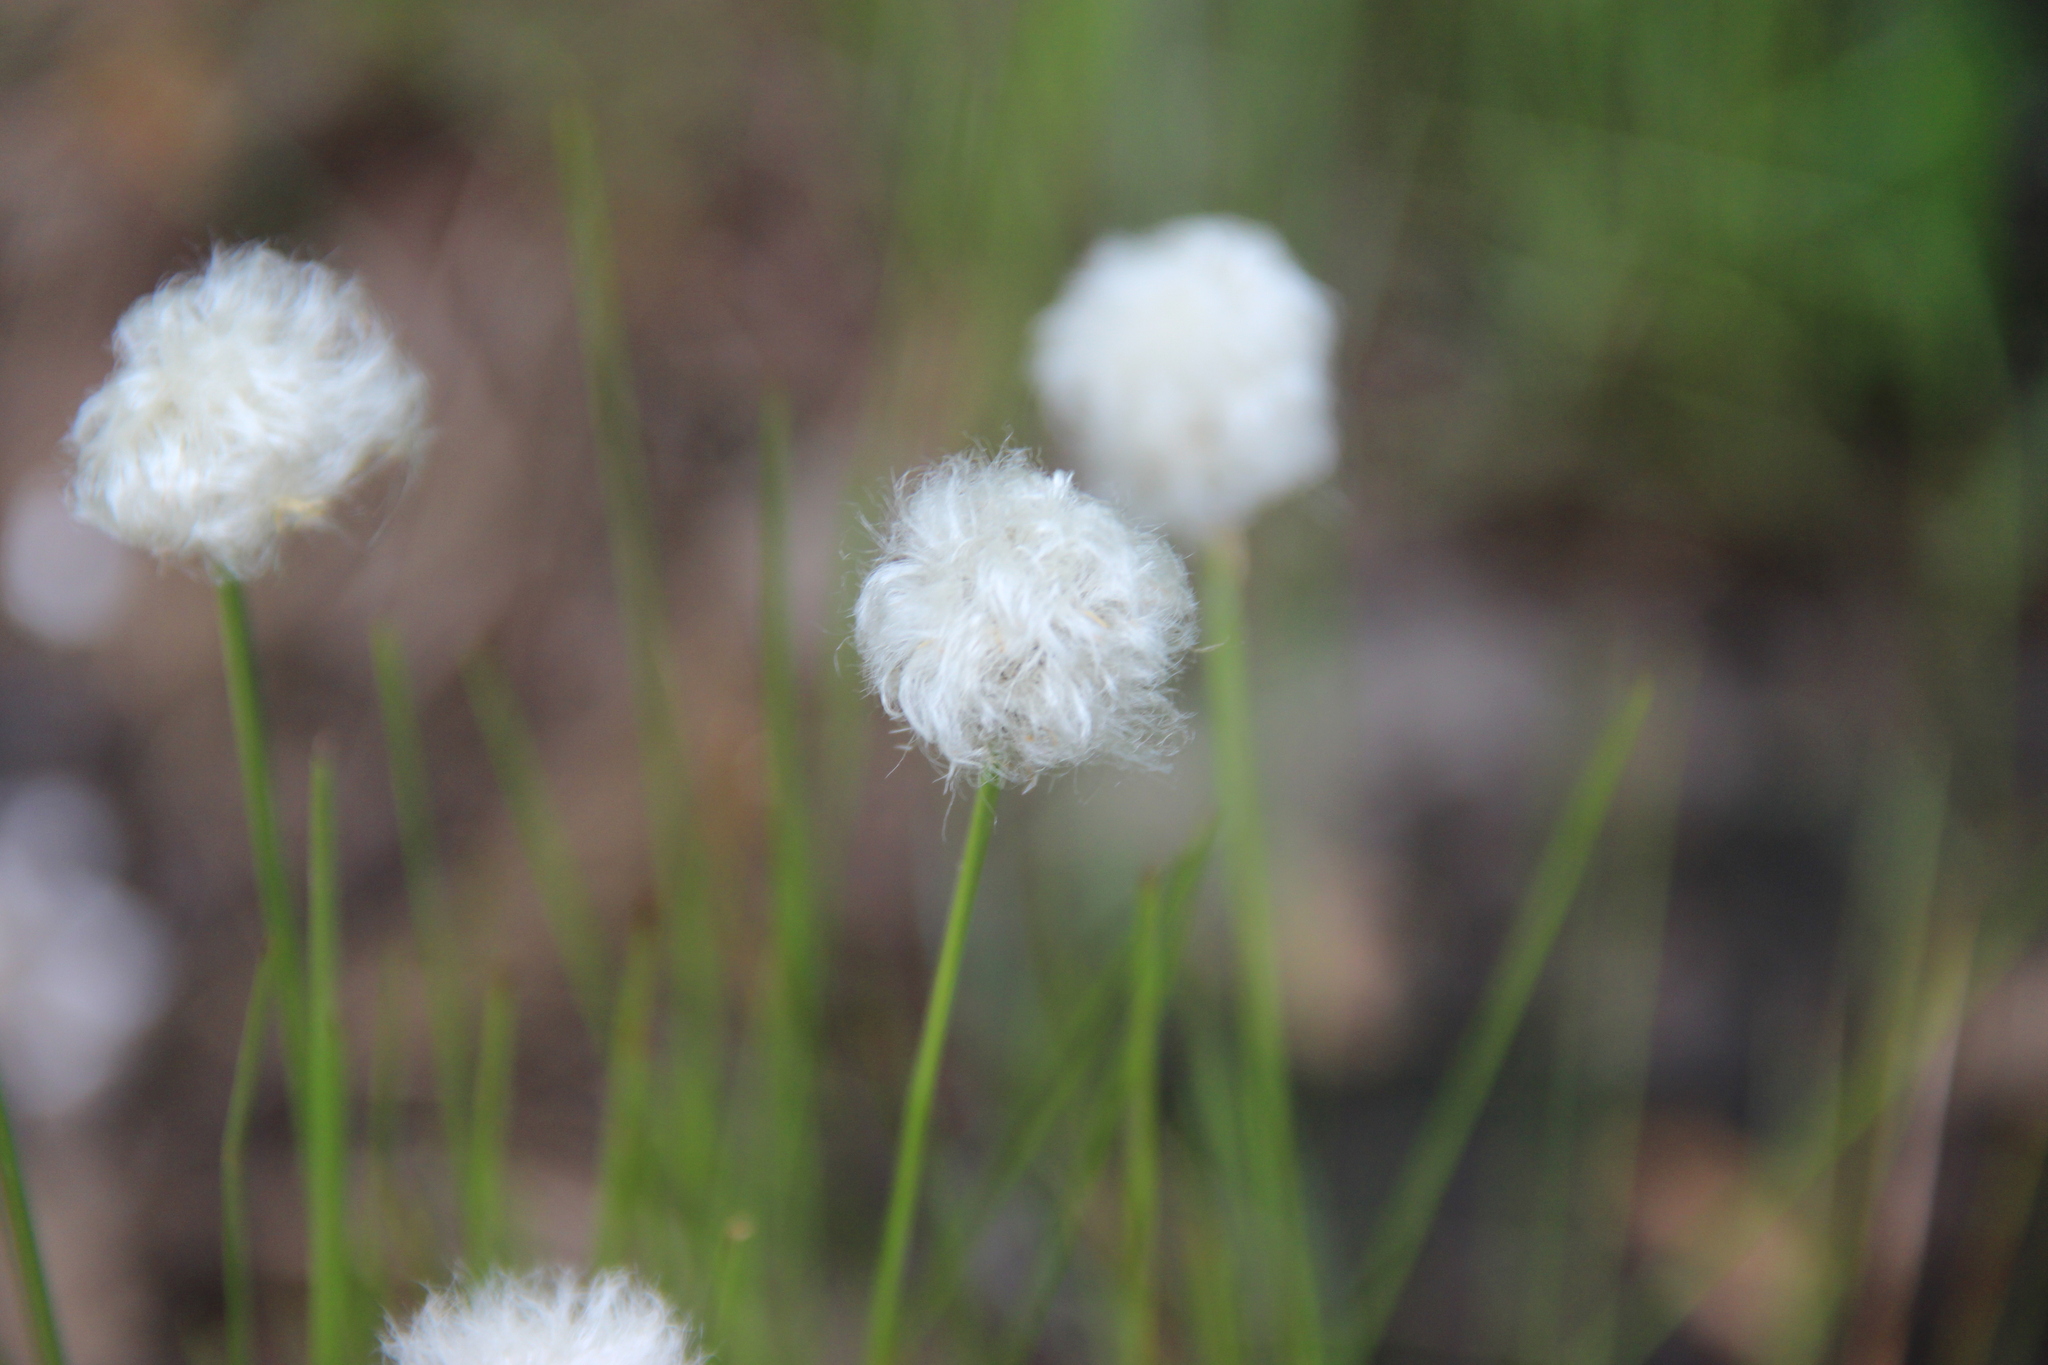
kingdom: Plantae
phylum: Tracheophyta
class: Liliopsida
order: Poales
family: Cyperaceae
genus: Eriophorum
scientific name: Eriophorum vaginatum
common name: Hare's-tail cottongrass
